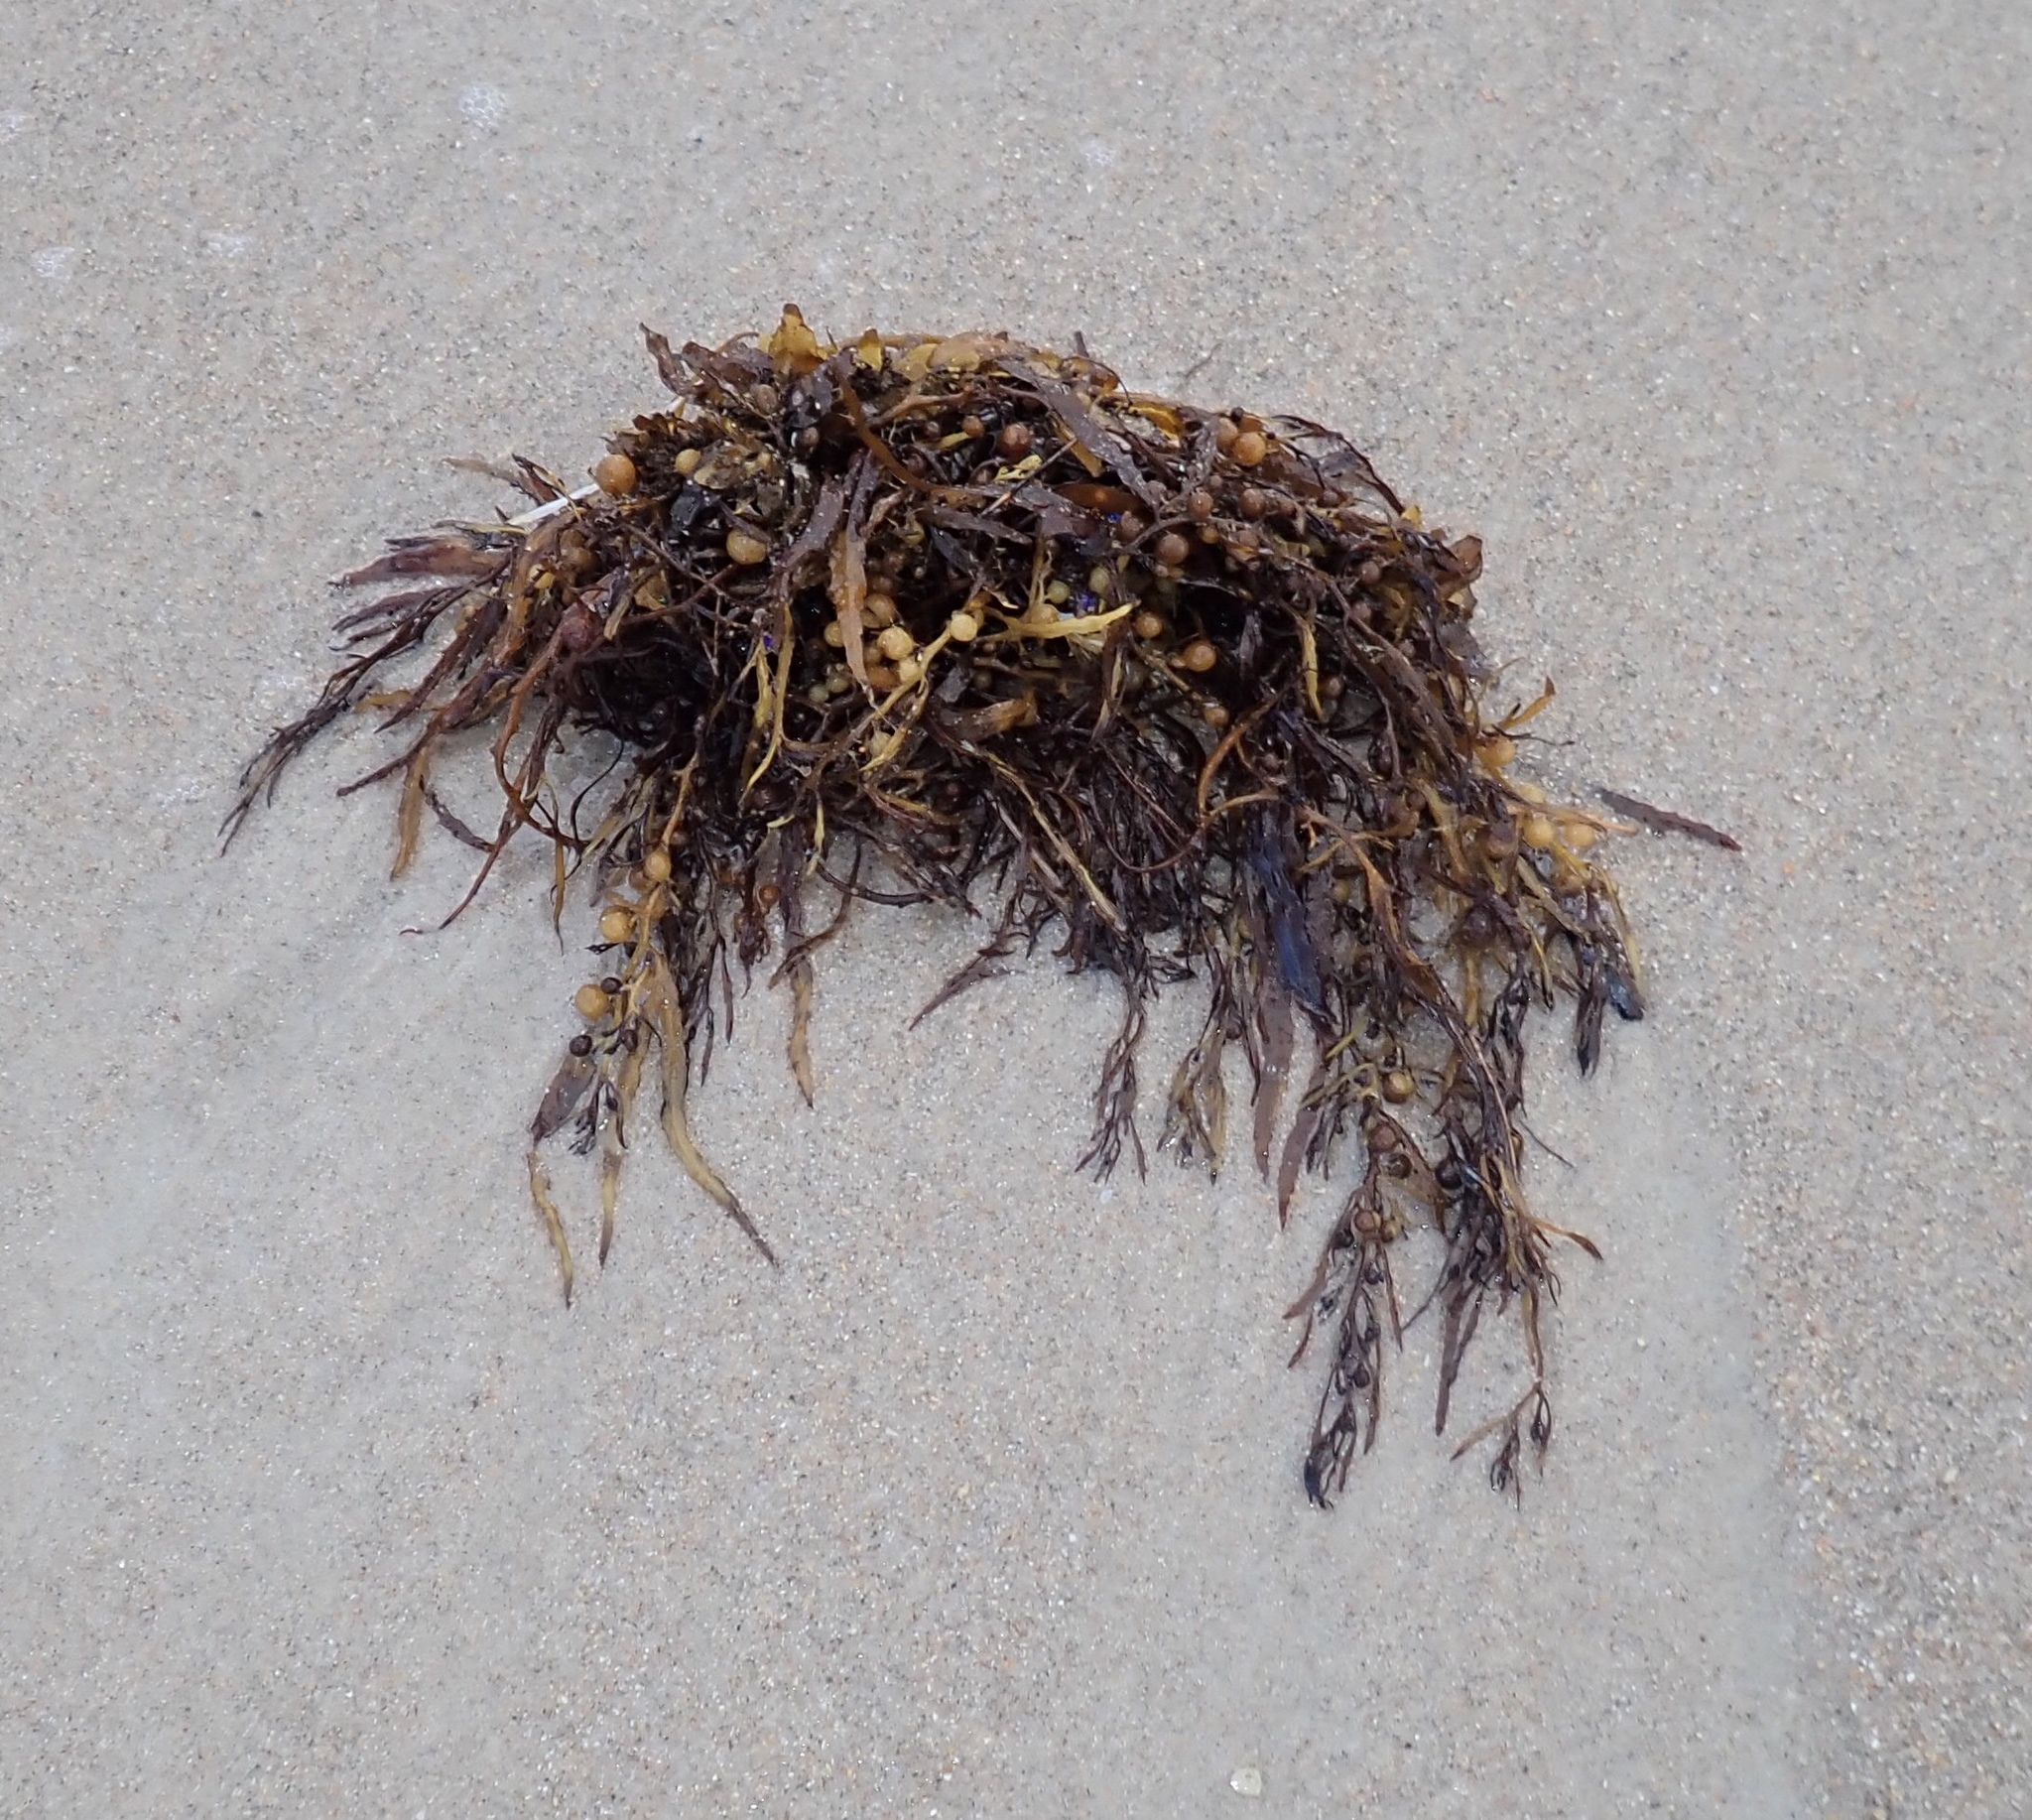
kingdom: Chromista
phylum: Ochrophyta
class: Phaeophyceae
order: Fucales
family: Sargassaceae
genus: Sargassum
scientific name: Sargassum fluitans
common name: Sargassum seaweed
